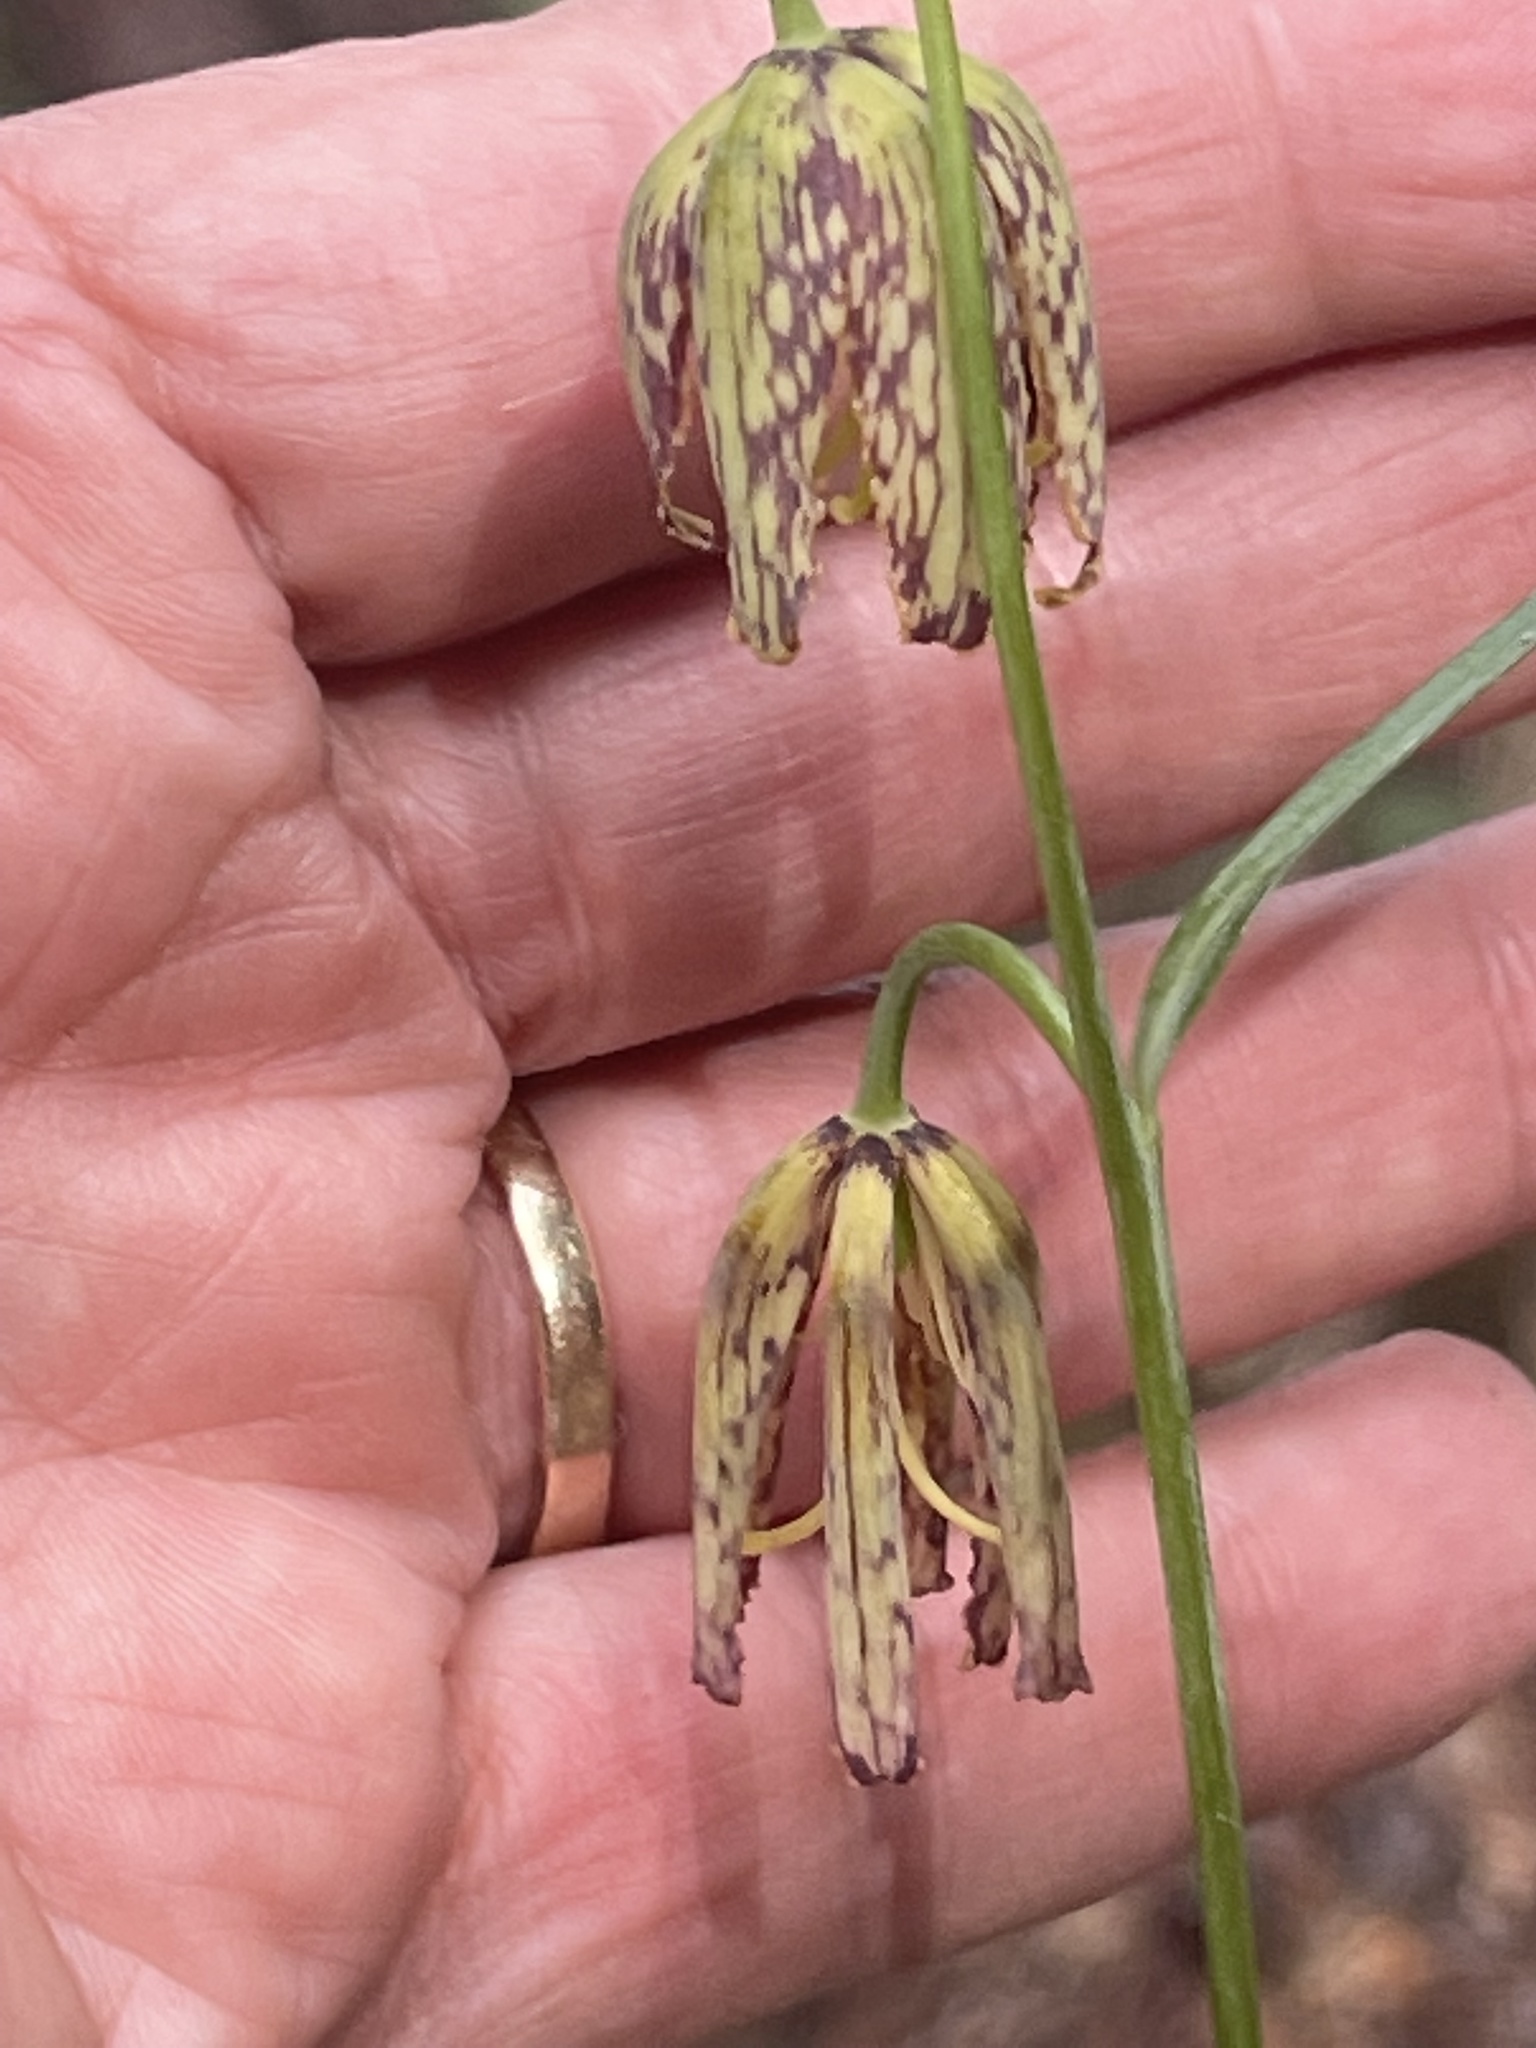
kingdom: Plantae
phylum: Tracheophyta
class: Liliopsida
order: Liliales
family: Liliaceae
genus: Fritillaria
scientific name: Fritillaria affinis
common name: Ojai fritillary
